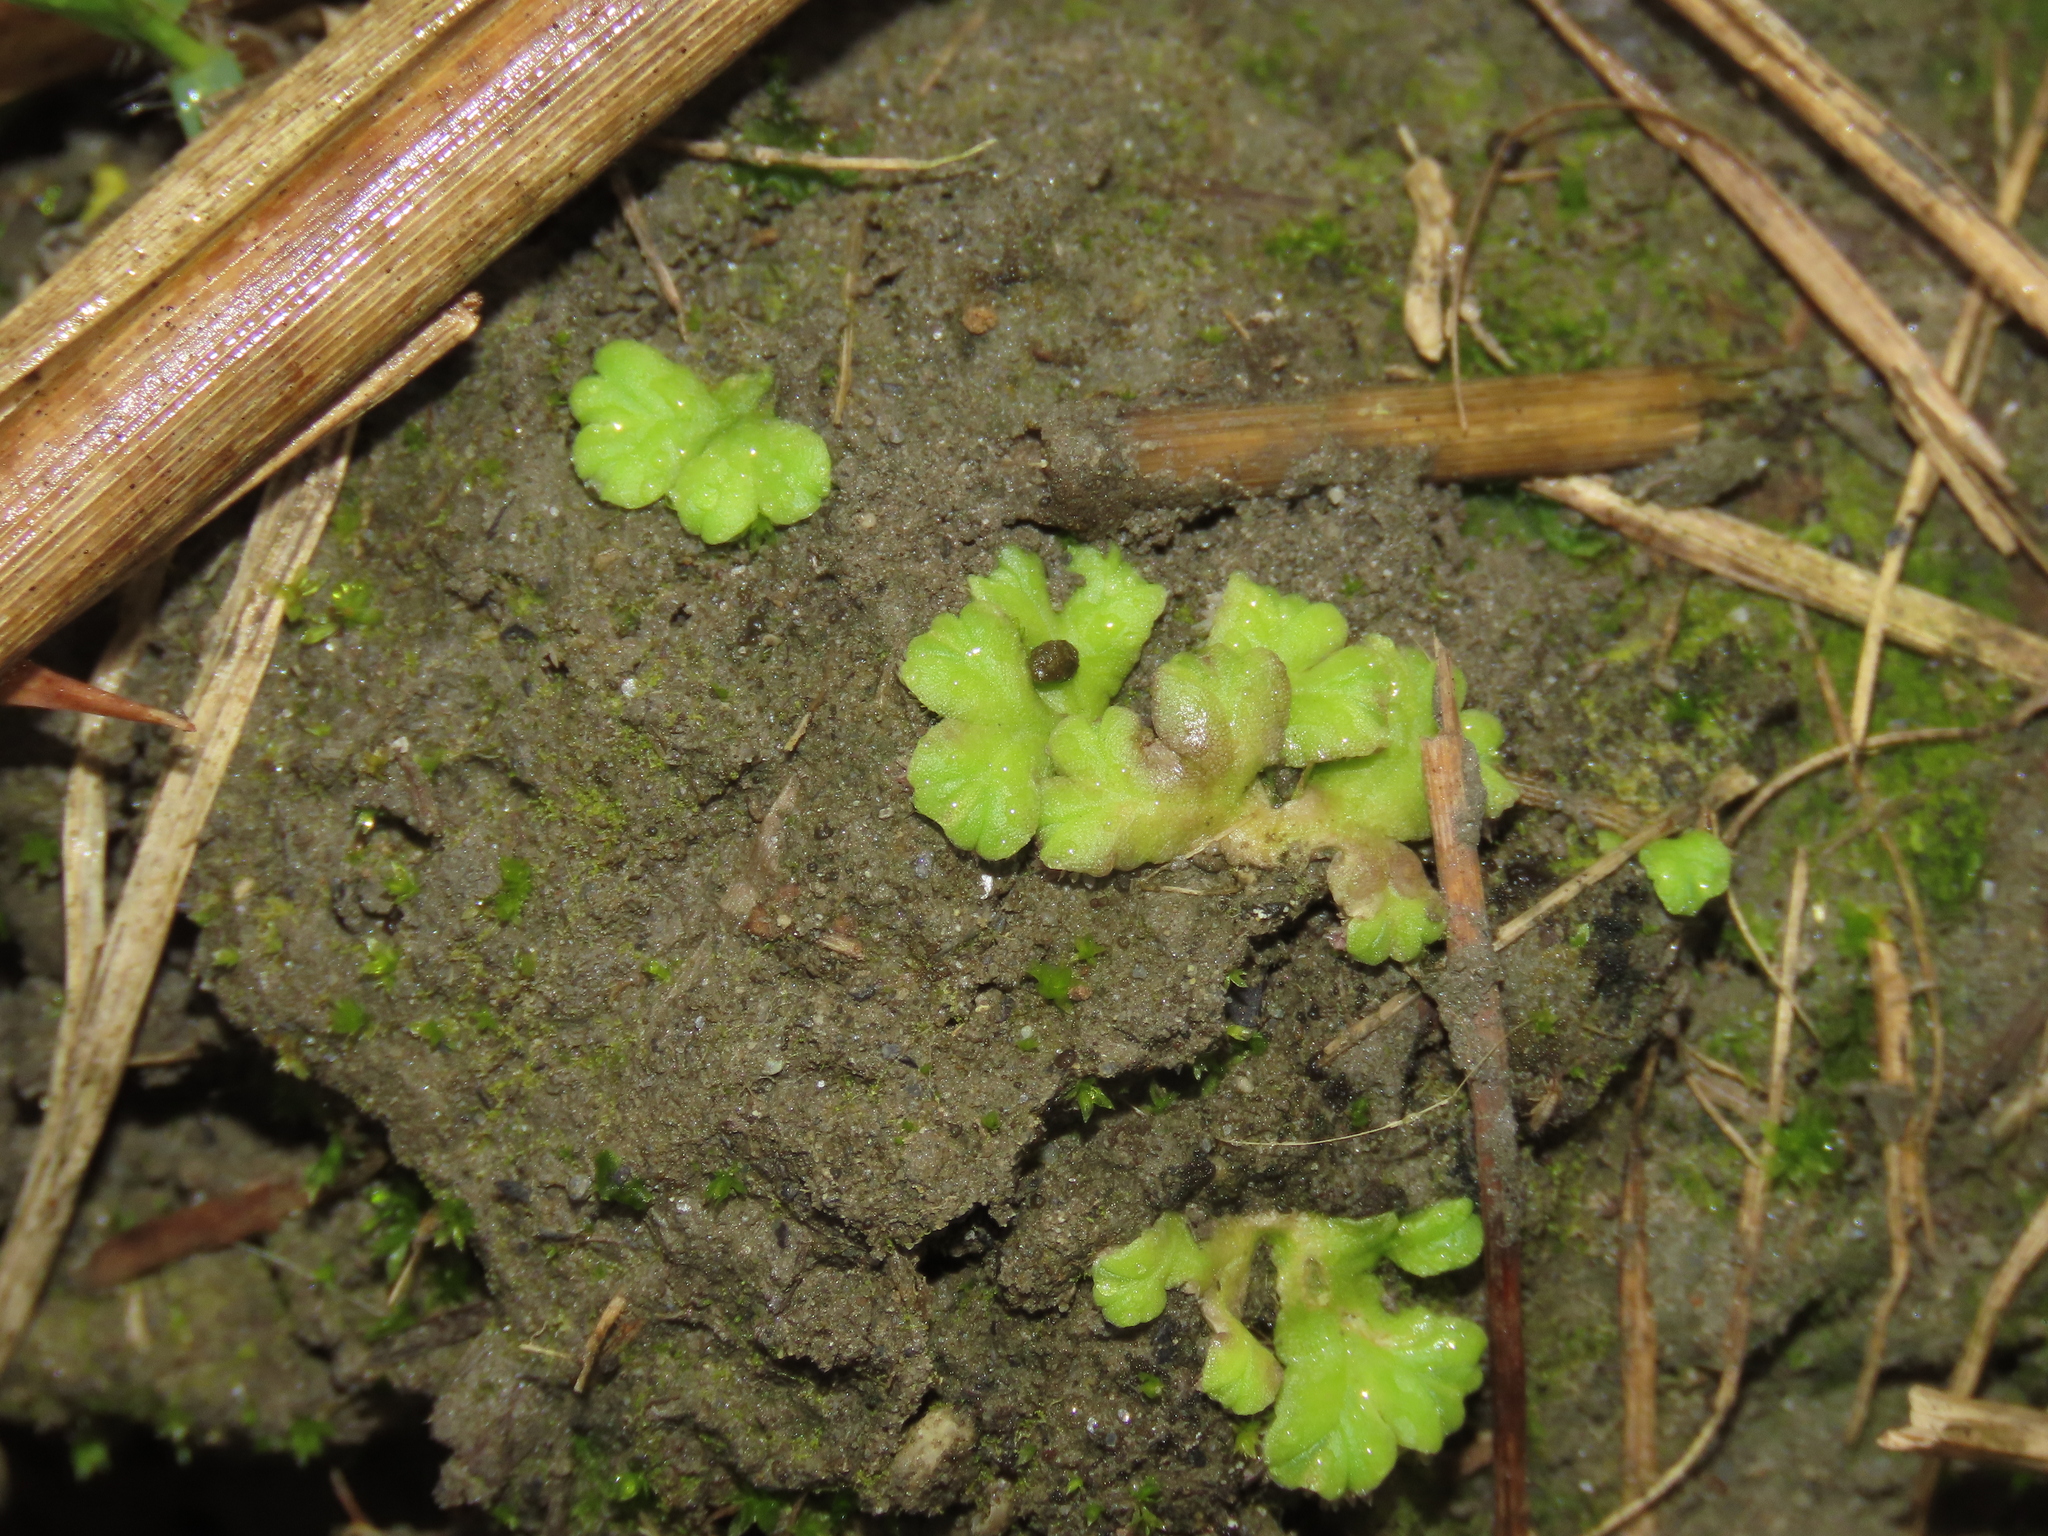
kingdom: Plantae
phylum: Marchantiophyta
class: Marchantiopsida
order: Marchantiales
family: Ricciaceae
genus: Ricciocarpos
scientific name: Ricciocarpos natans
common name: Purple-fringed liverwort
